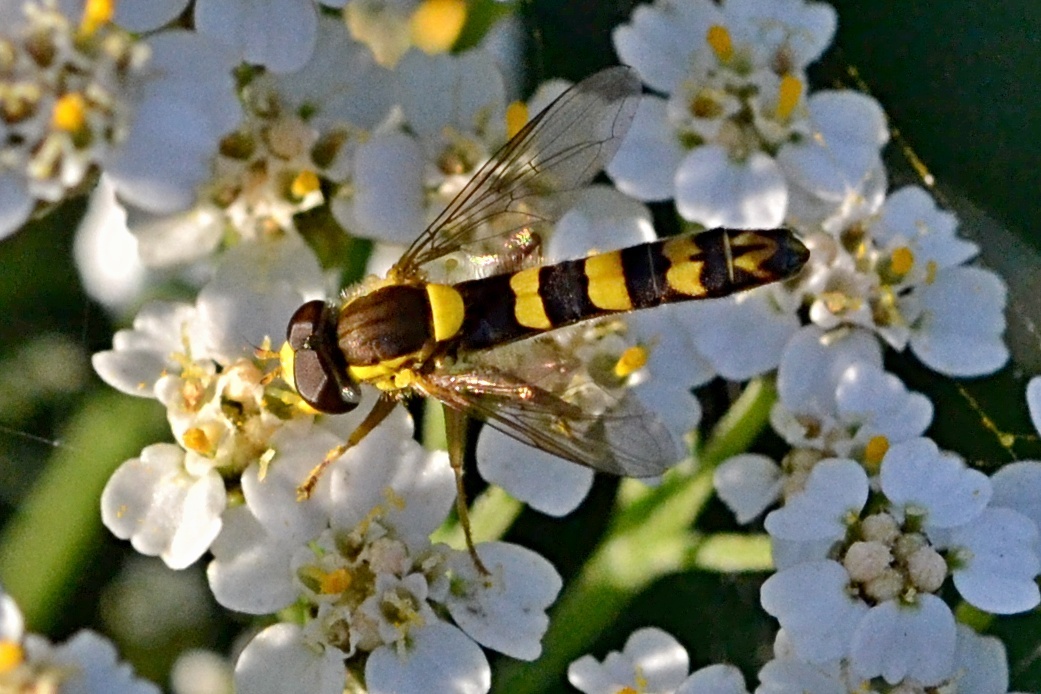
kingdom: Animalia
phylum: Arthropoda
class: Insecta
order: Diptera
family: Syrphidae
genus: Sphaerophoria
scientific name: Sphaerophoria scripta
